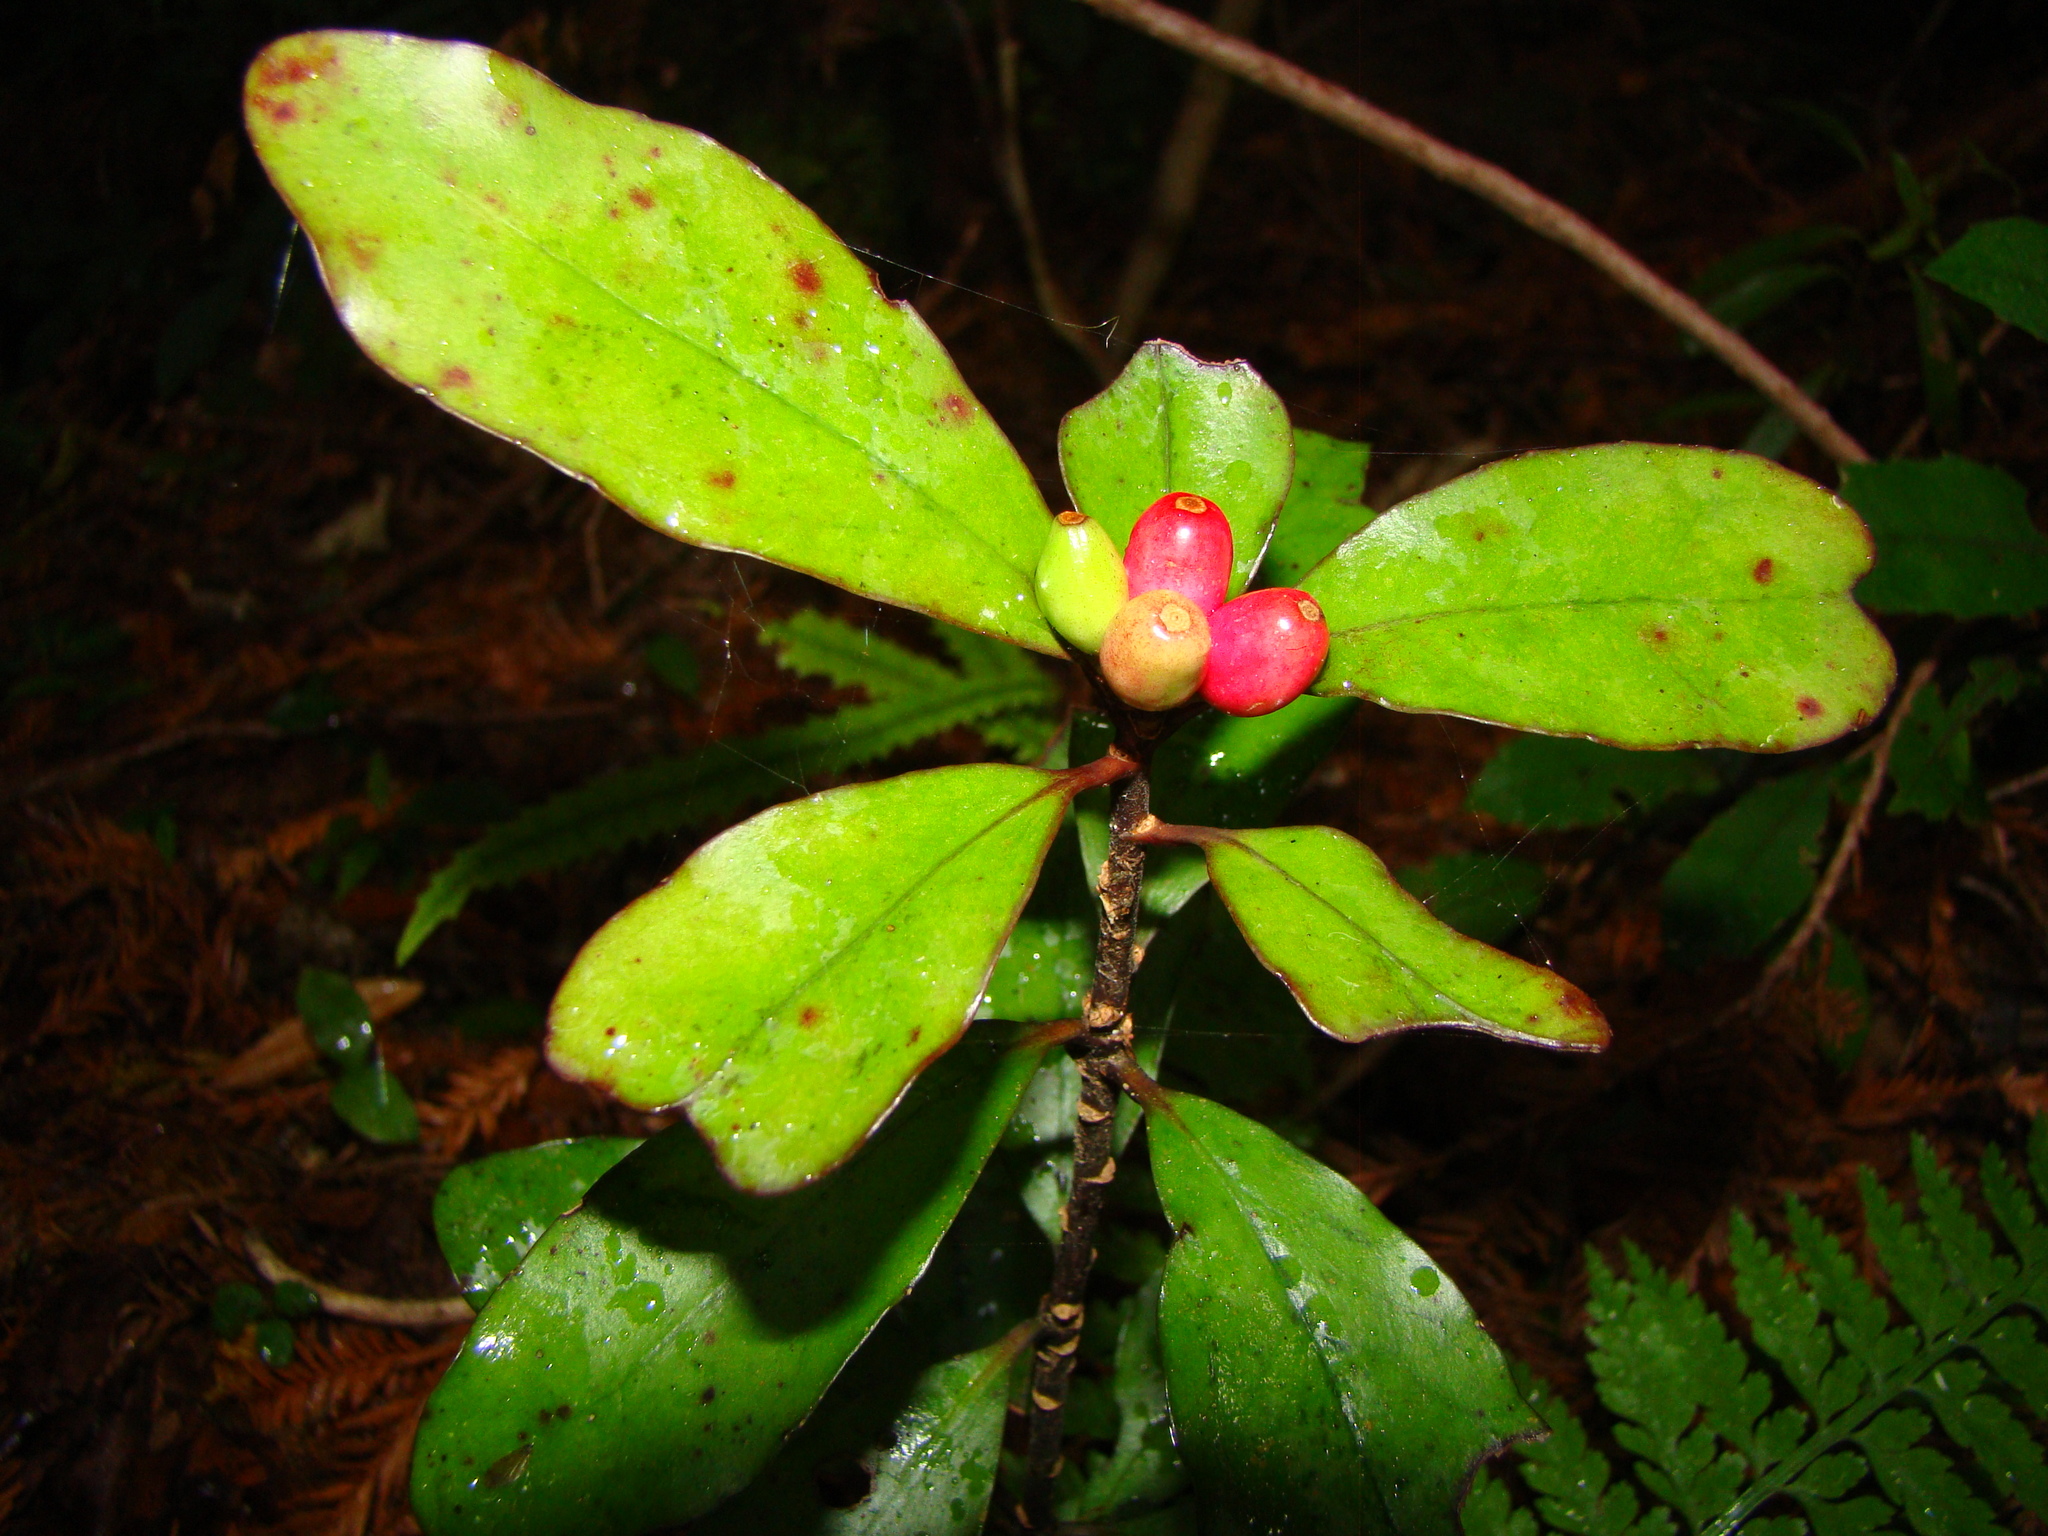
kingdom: Plantae
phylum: Tracheophyta
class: Magnoliopsida
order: Asterales
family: Alseuosmiaceae
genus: Alseuosmia
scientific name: Alseuosmia pusilla
